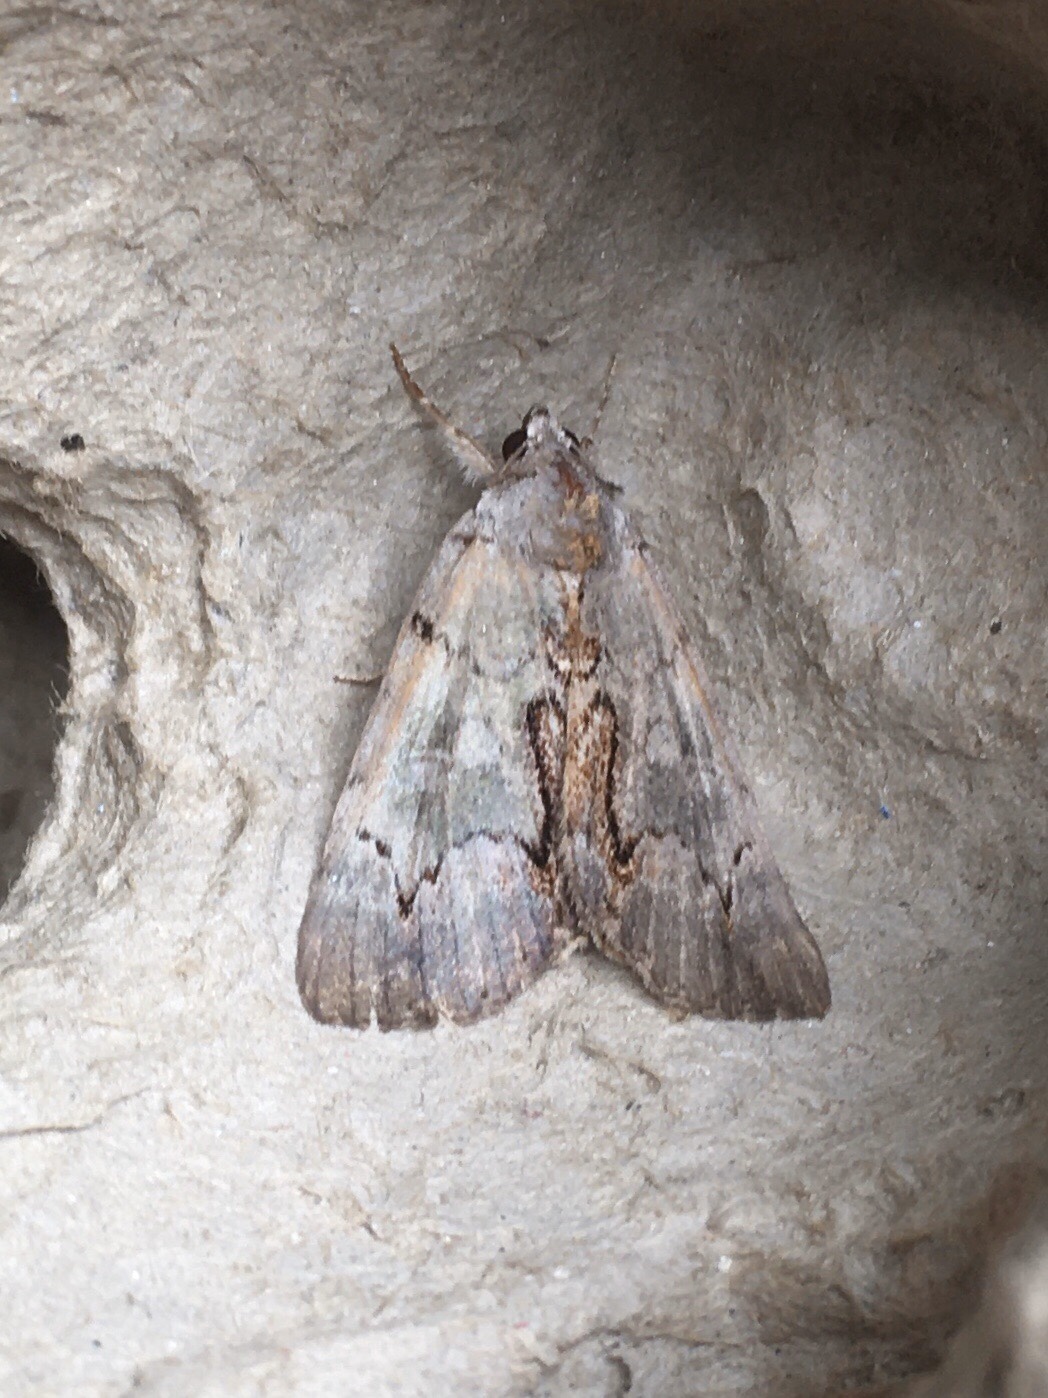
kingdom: Animalia
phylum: Arthropoda
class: Insecta
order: Lepidoptera
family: Erebidae
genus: Catocala
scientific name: Catocala grynea
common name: Woody underwing
